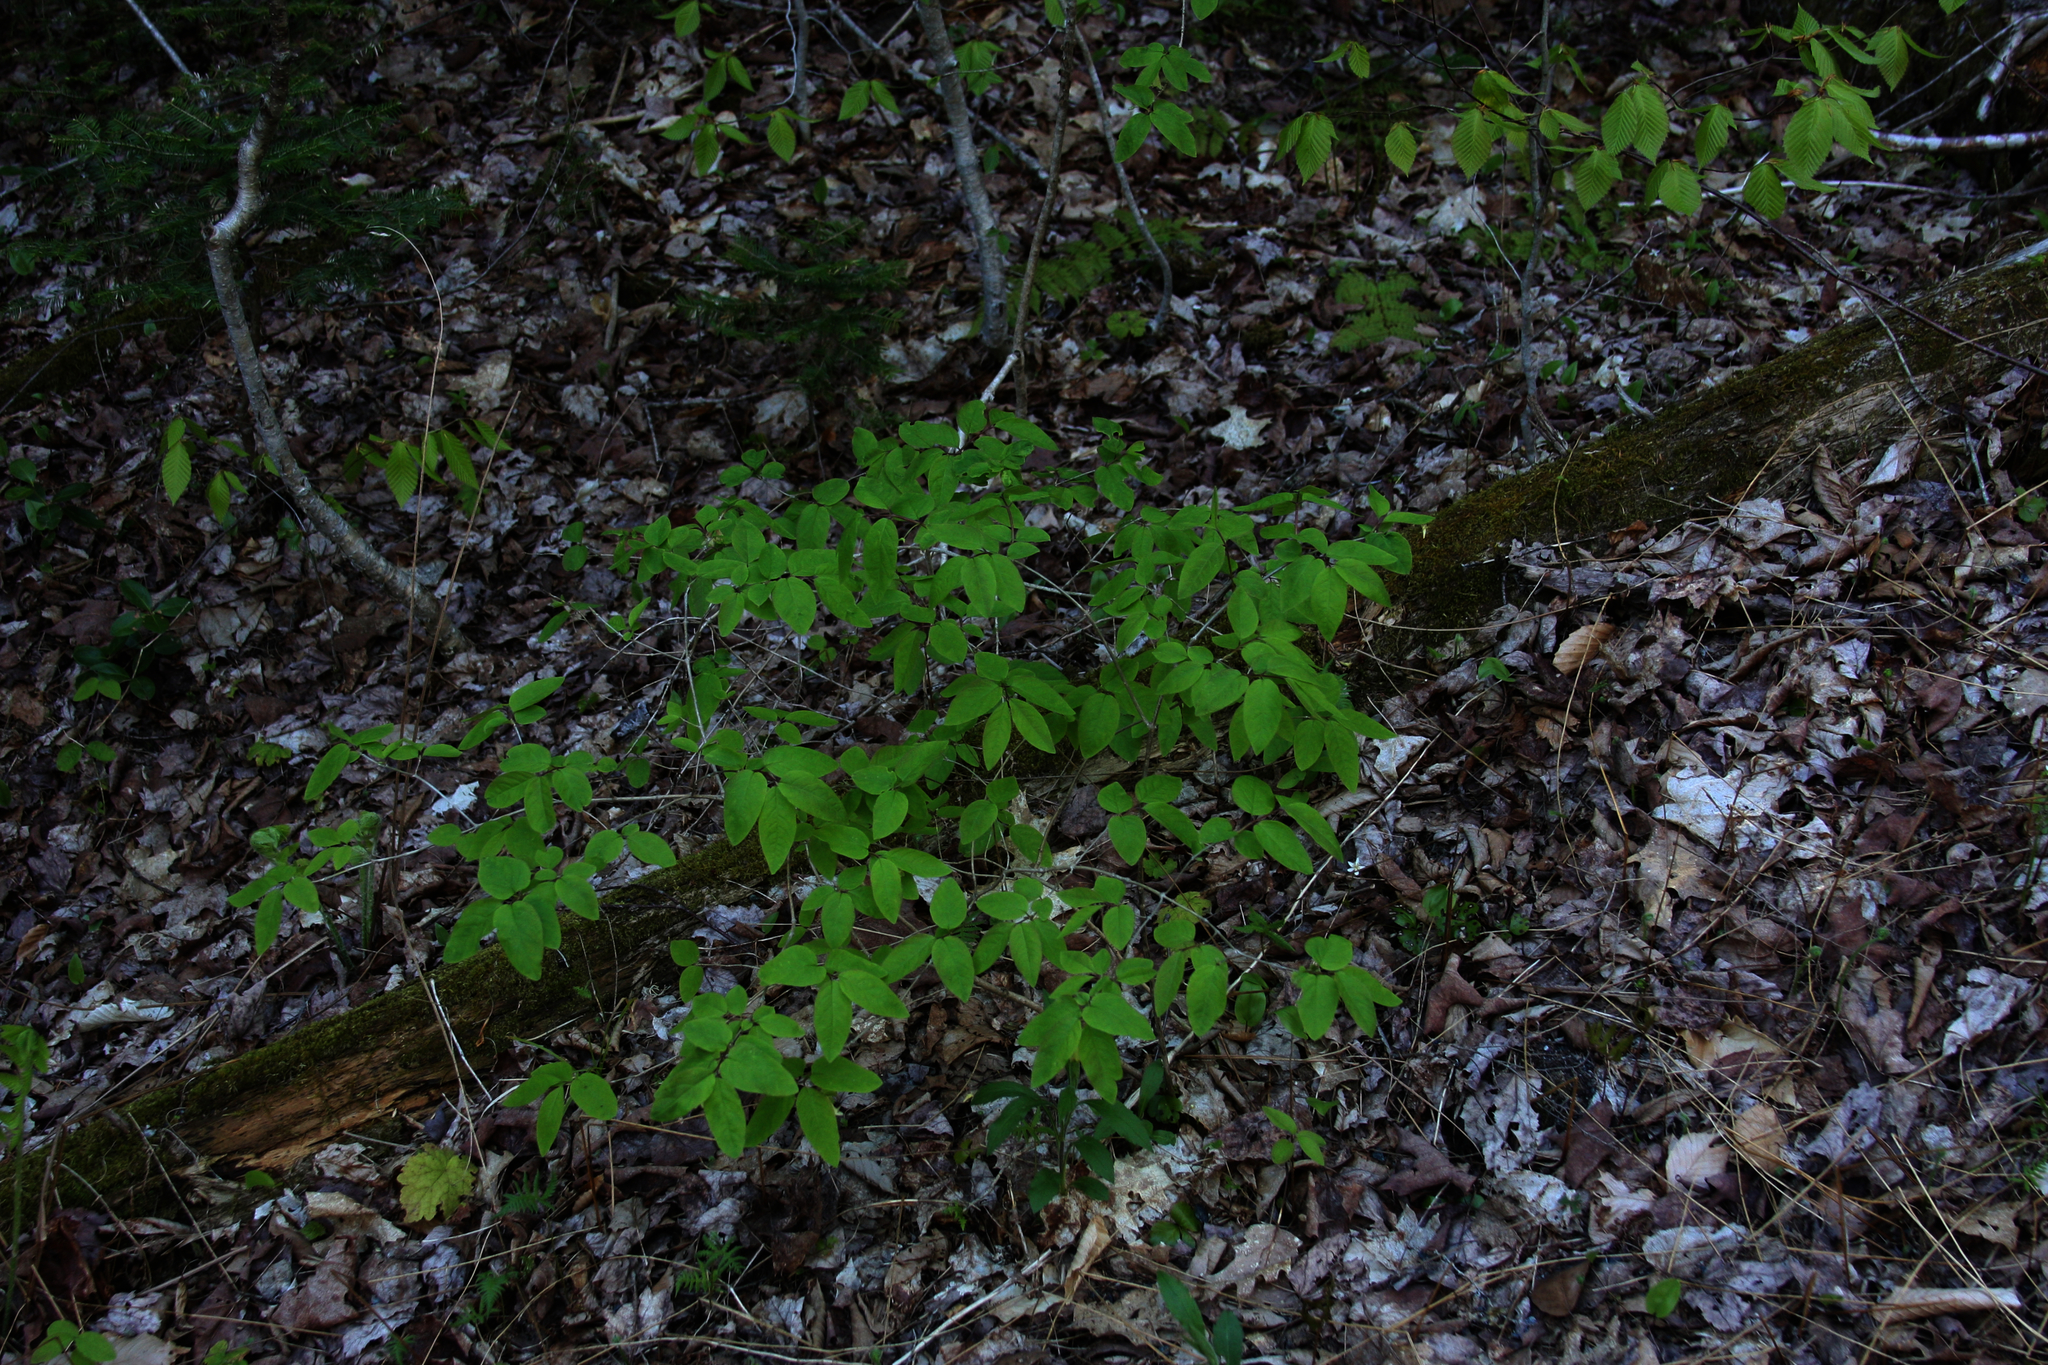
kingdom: Plantae
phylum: Tracheophyta
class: Magnoliopsida
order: Dipsacales
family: Caprifoliaceae
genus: Lonicera
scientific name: Lonicera canadensis
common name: American fly-honeysuckle
